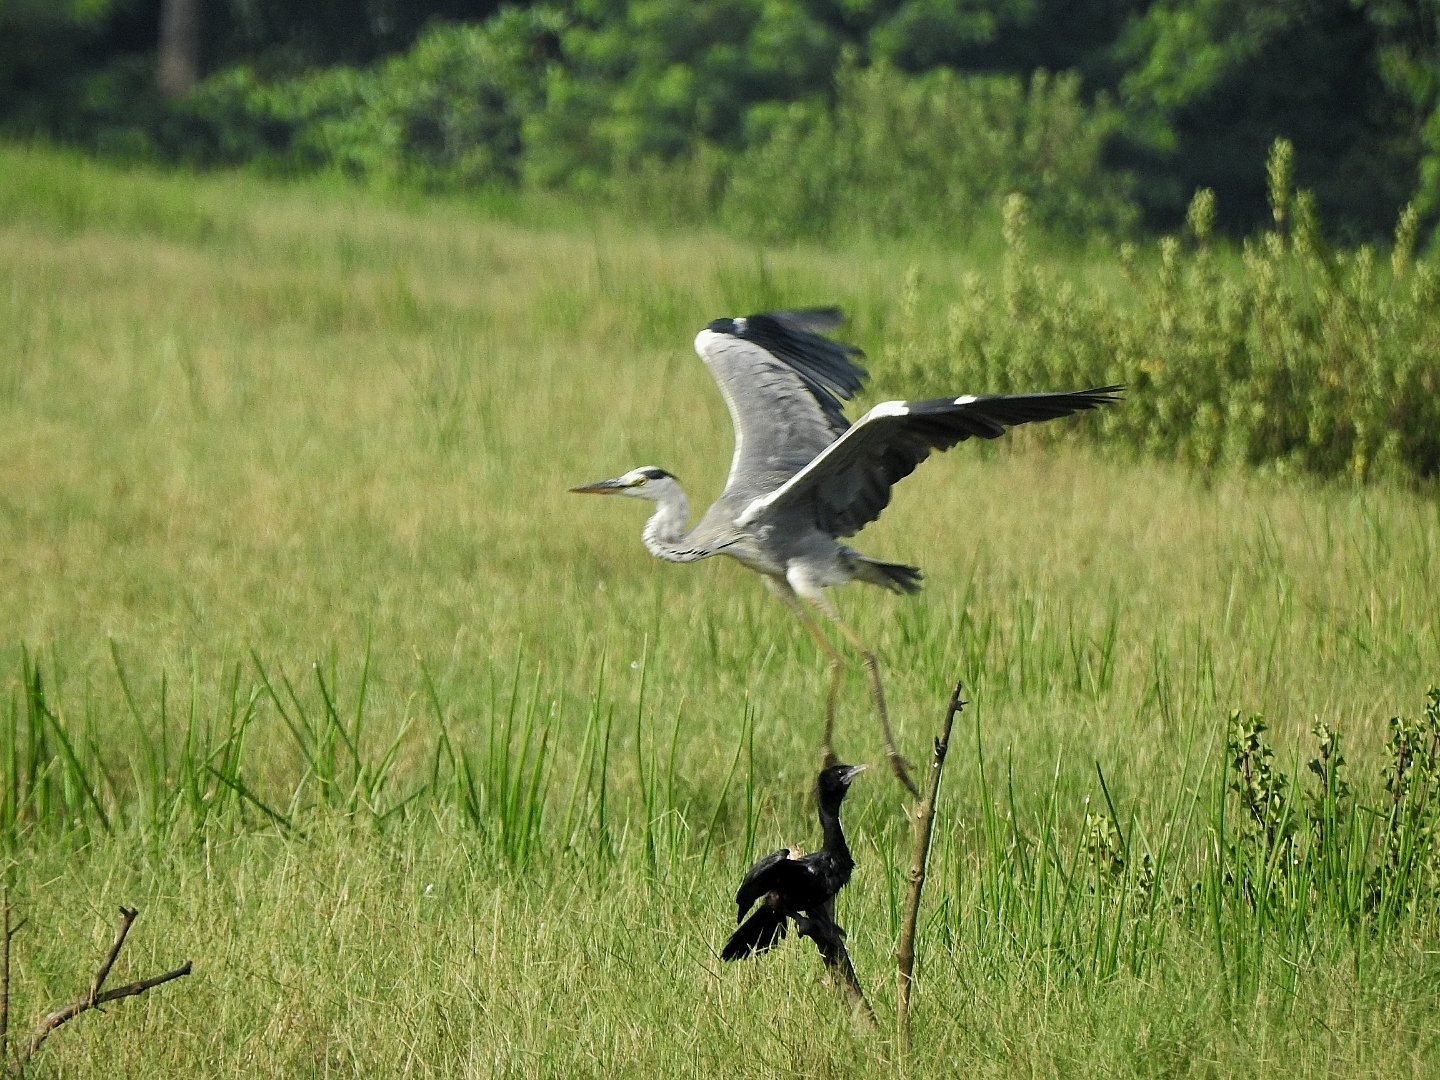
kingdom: Animalia
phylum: Chordata
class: Aves
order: Pelecaniformes
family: Ardeidae
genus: Ardea
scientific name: Ardea cinerea
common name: Grey heron
